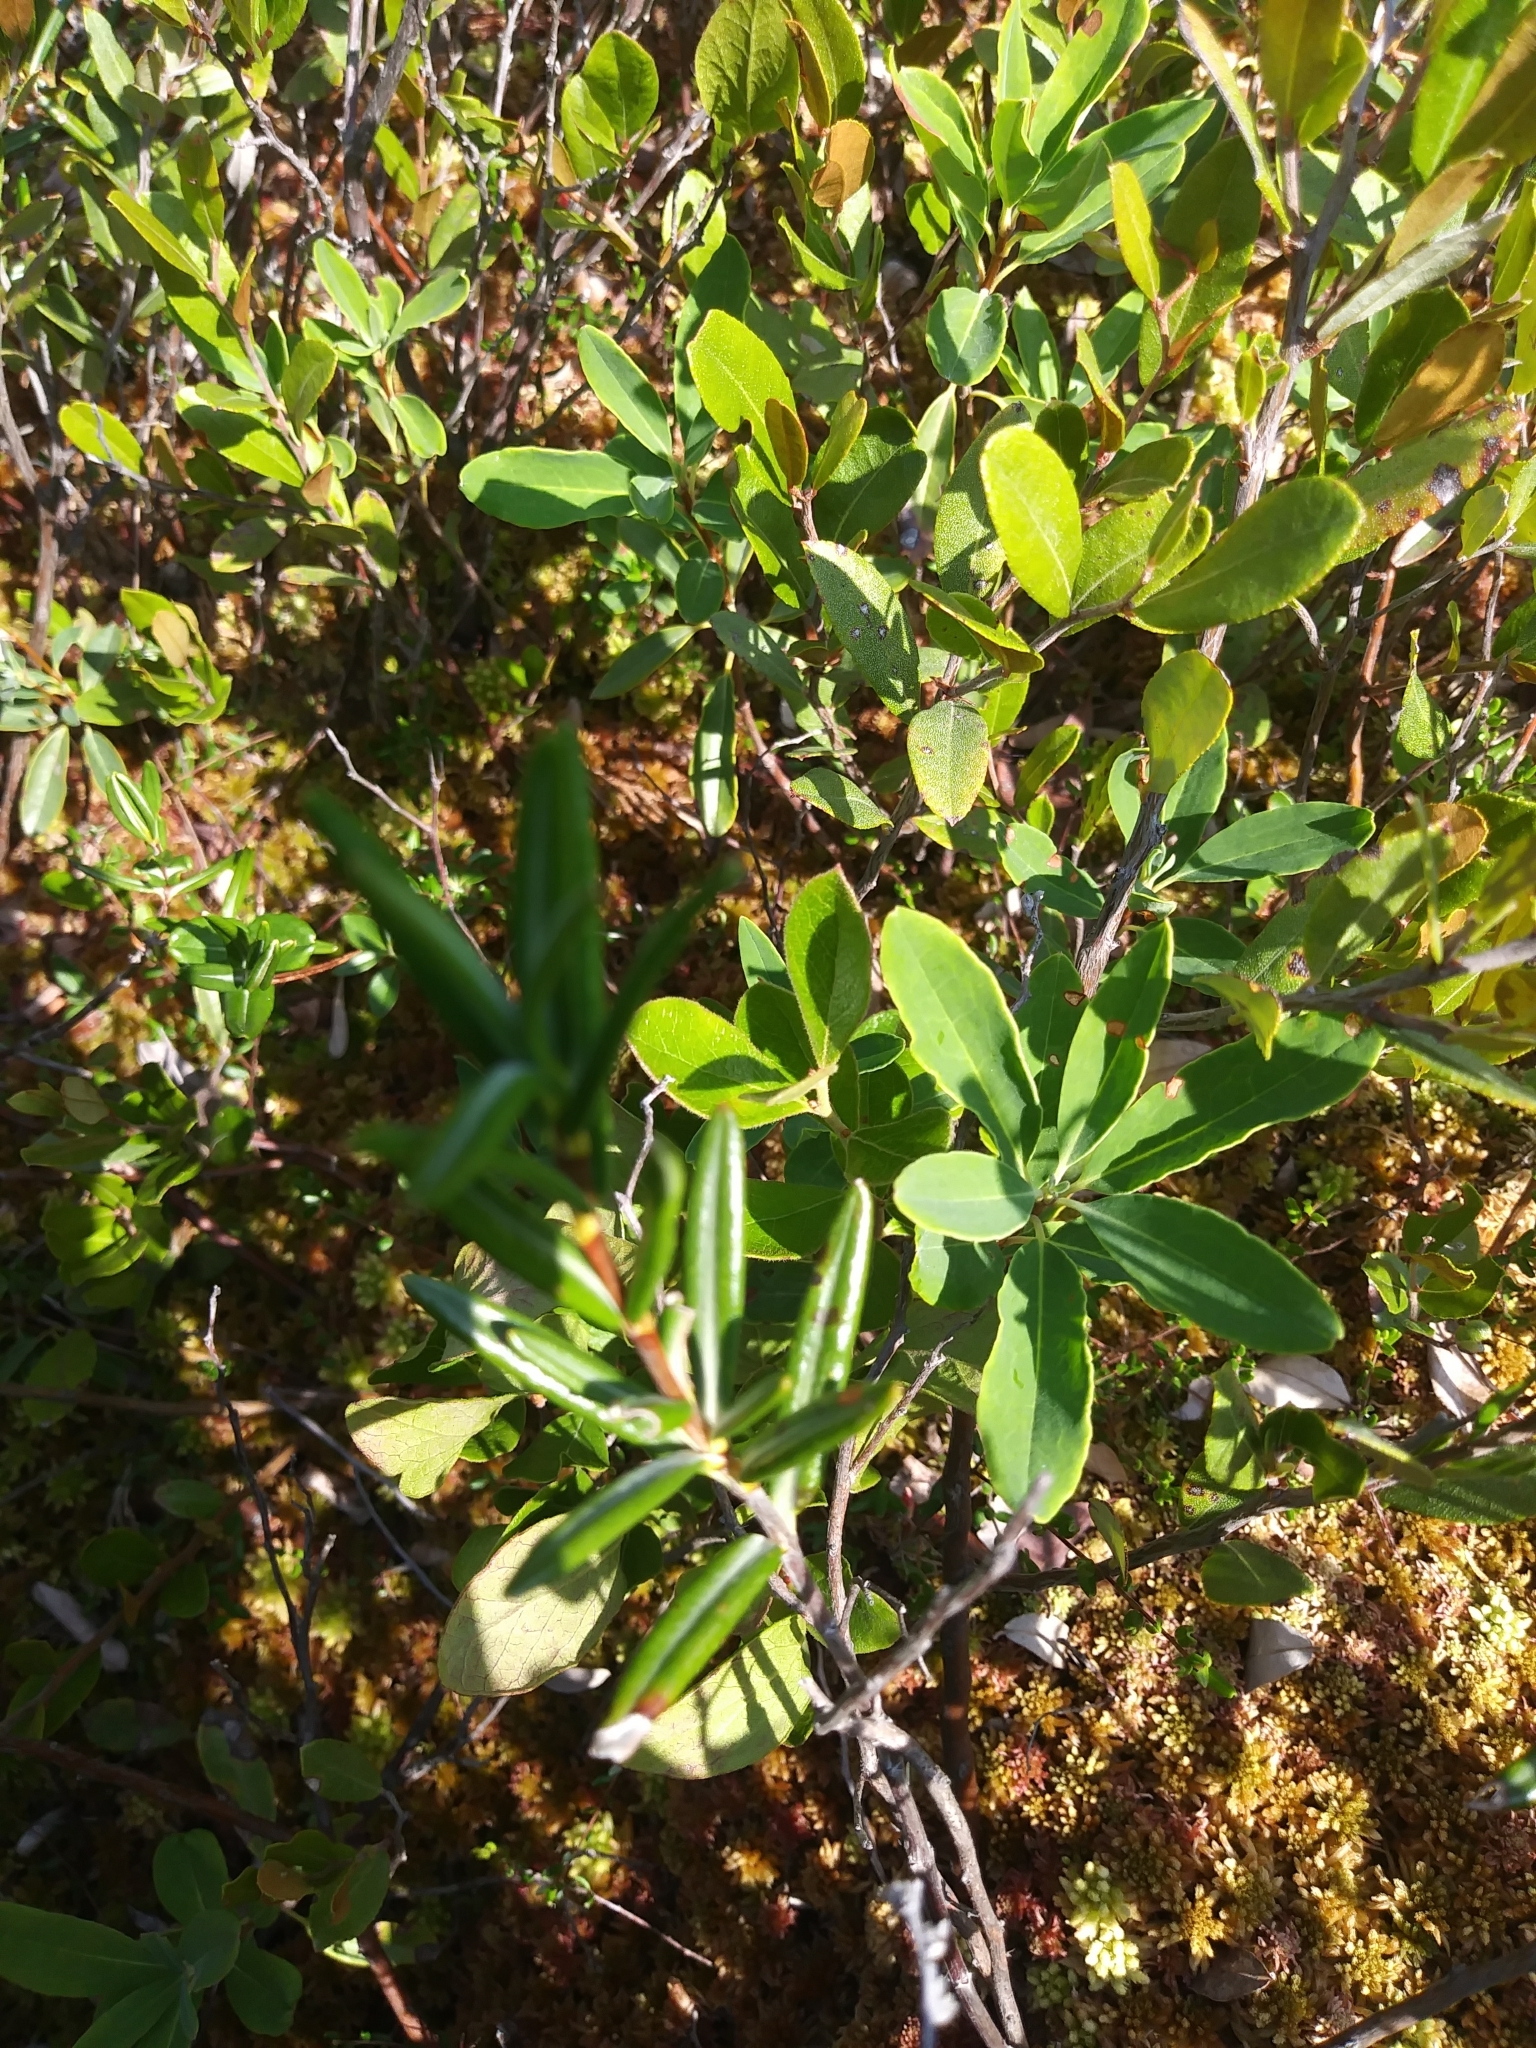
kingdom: Plantae
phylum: Tracheophyta
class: Magnoliopsida
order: Ericales
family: Ericaceae
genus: Kalmia
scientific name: Kalmia polifolia
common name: Bog-laurel
